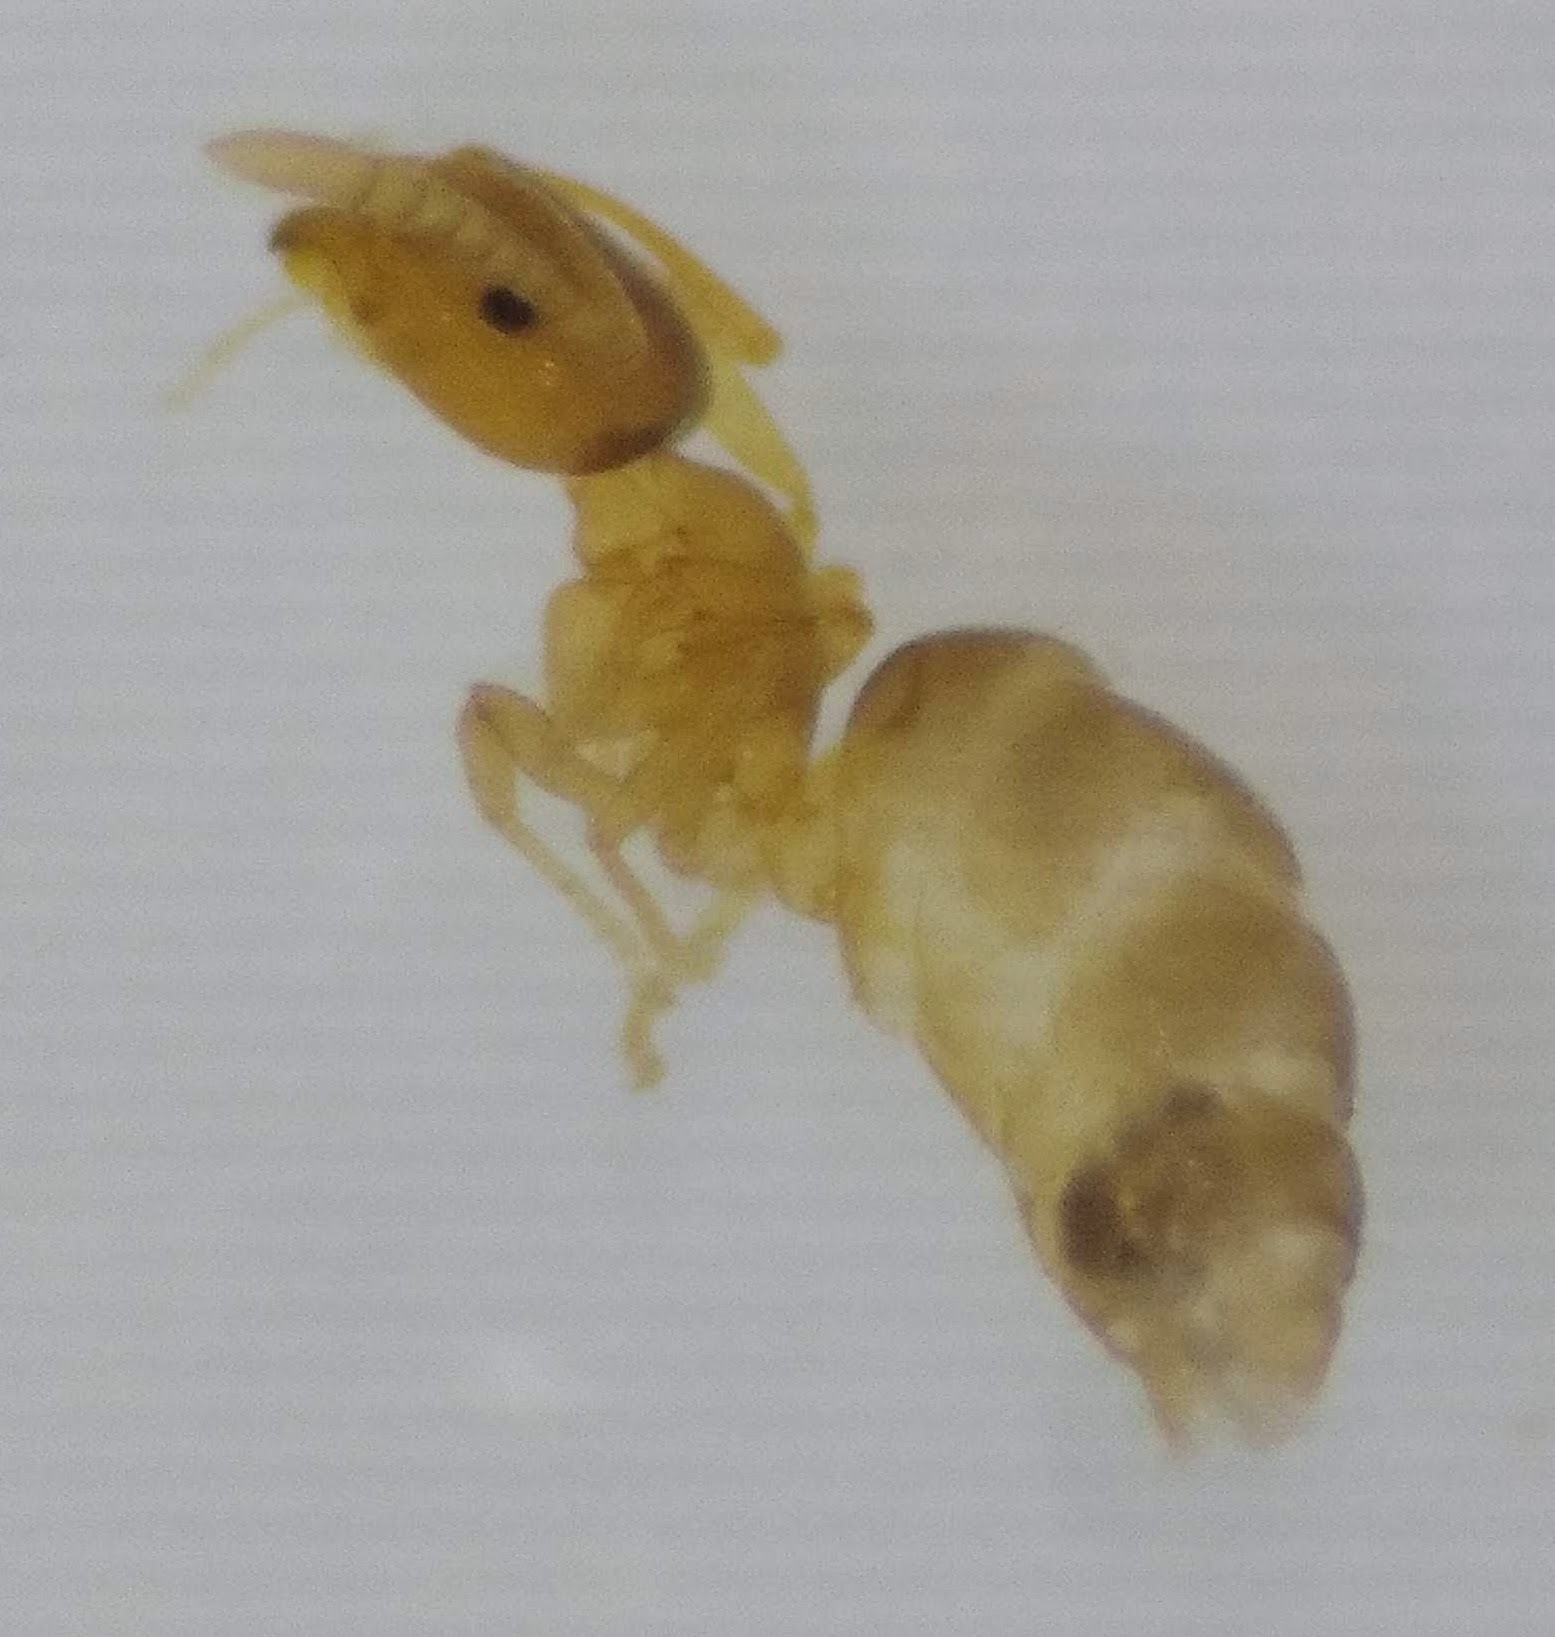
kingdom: Animalia
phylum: Arthropoda
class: Insecta
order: Hymenoptera
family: Formicidae
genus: Brachymyrmex
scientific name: Brachymyrmex depilis
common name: Hairless rover ant
